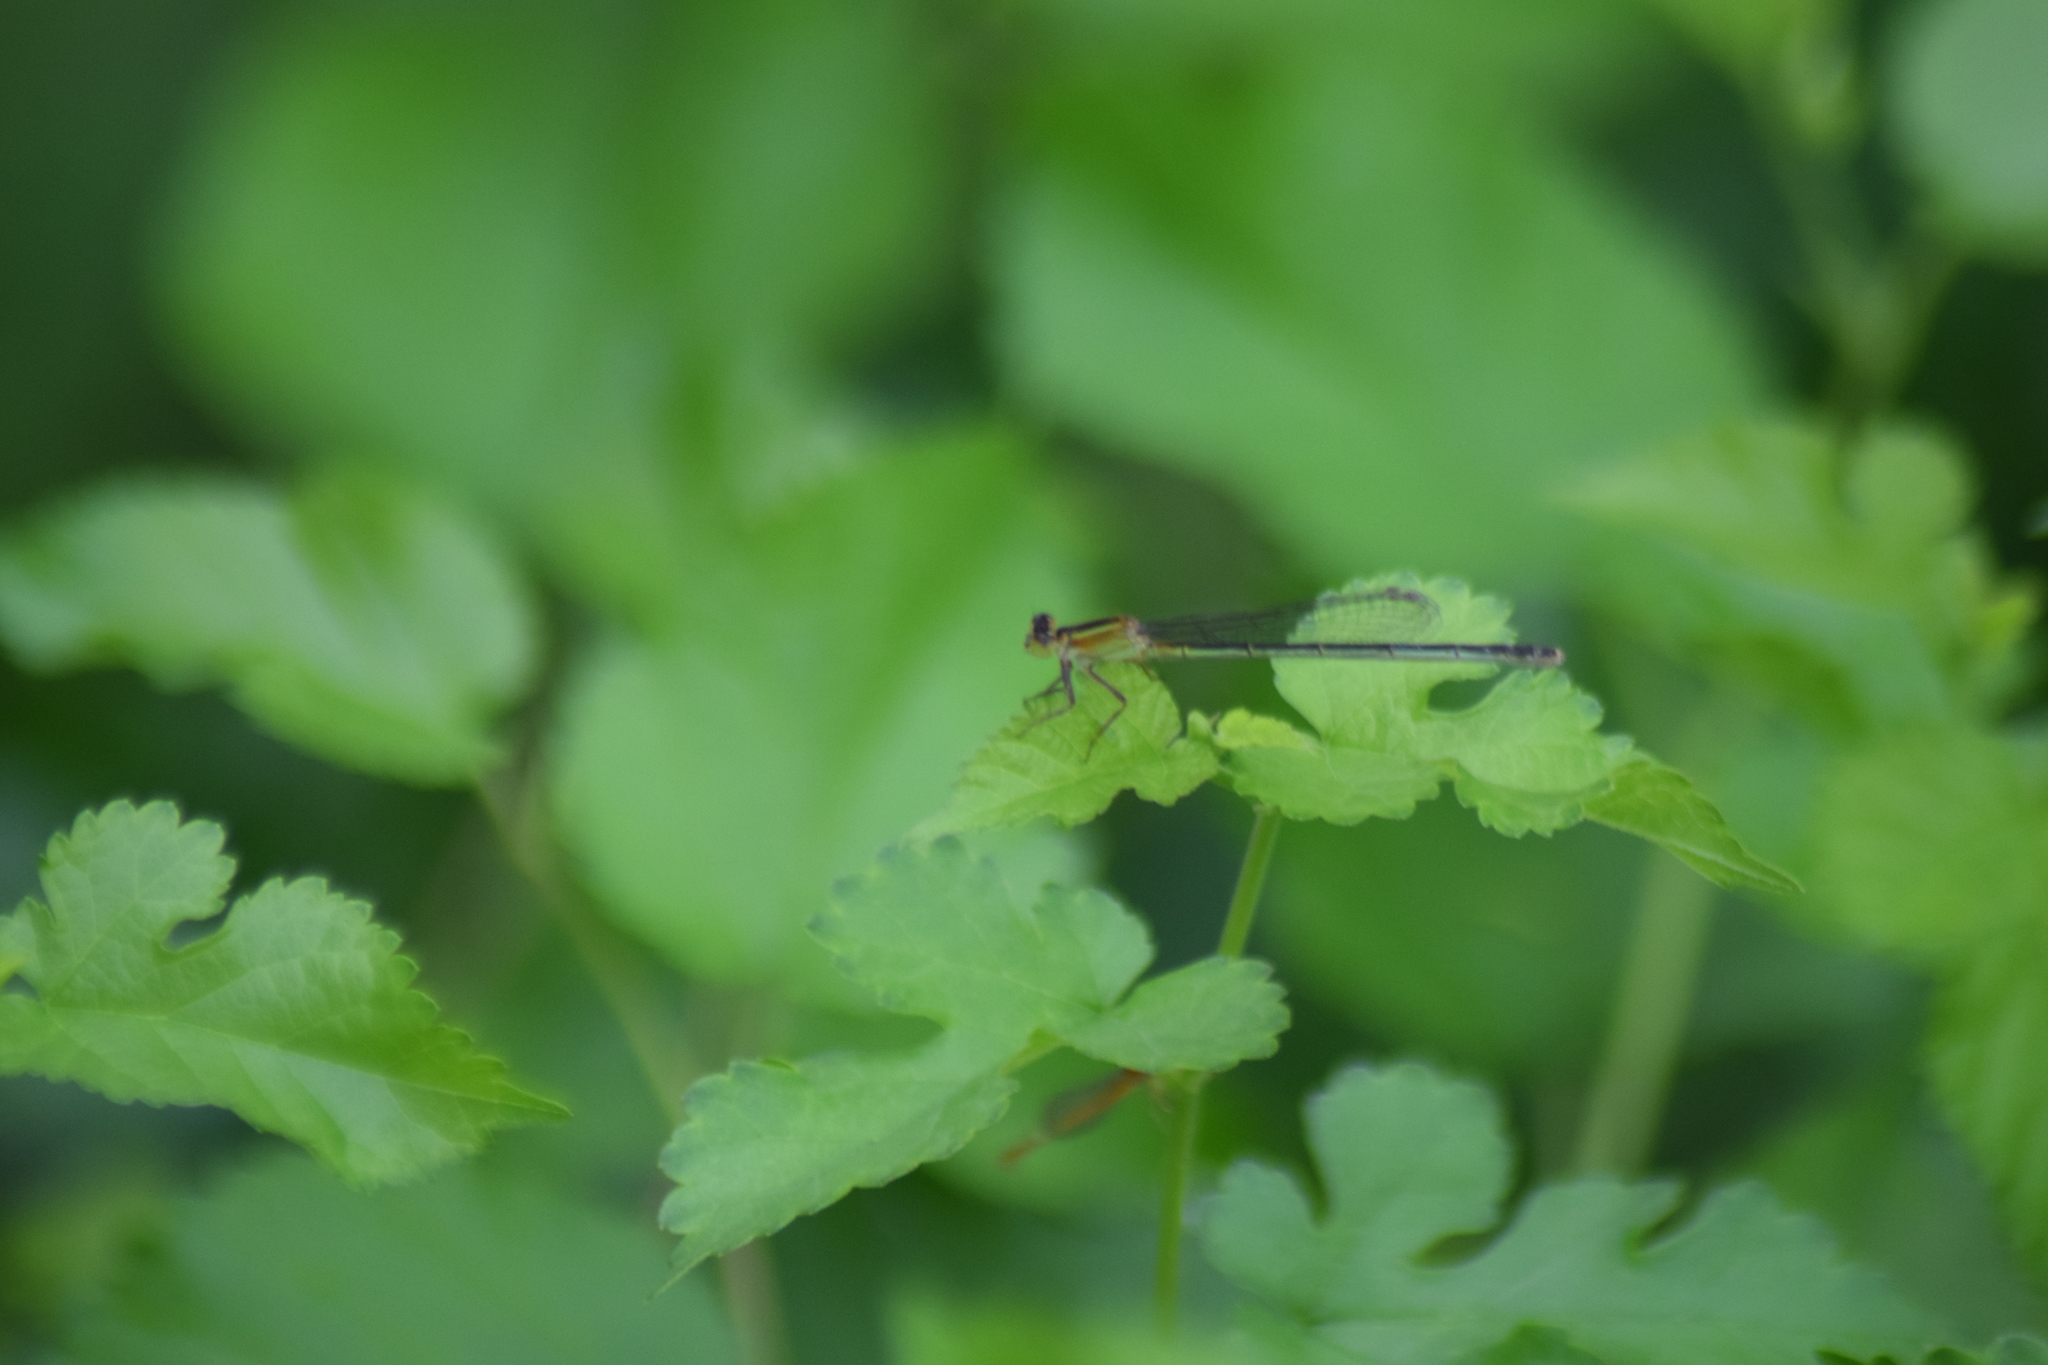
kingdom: Animalia
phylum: Arthropoda
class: Insecta
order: Odonata
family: Coenagrionidae
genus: Ischnura
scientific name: Ischnura ramburii
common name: Rambur's forktail
